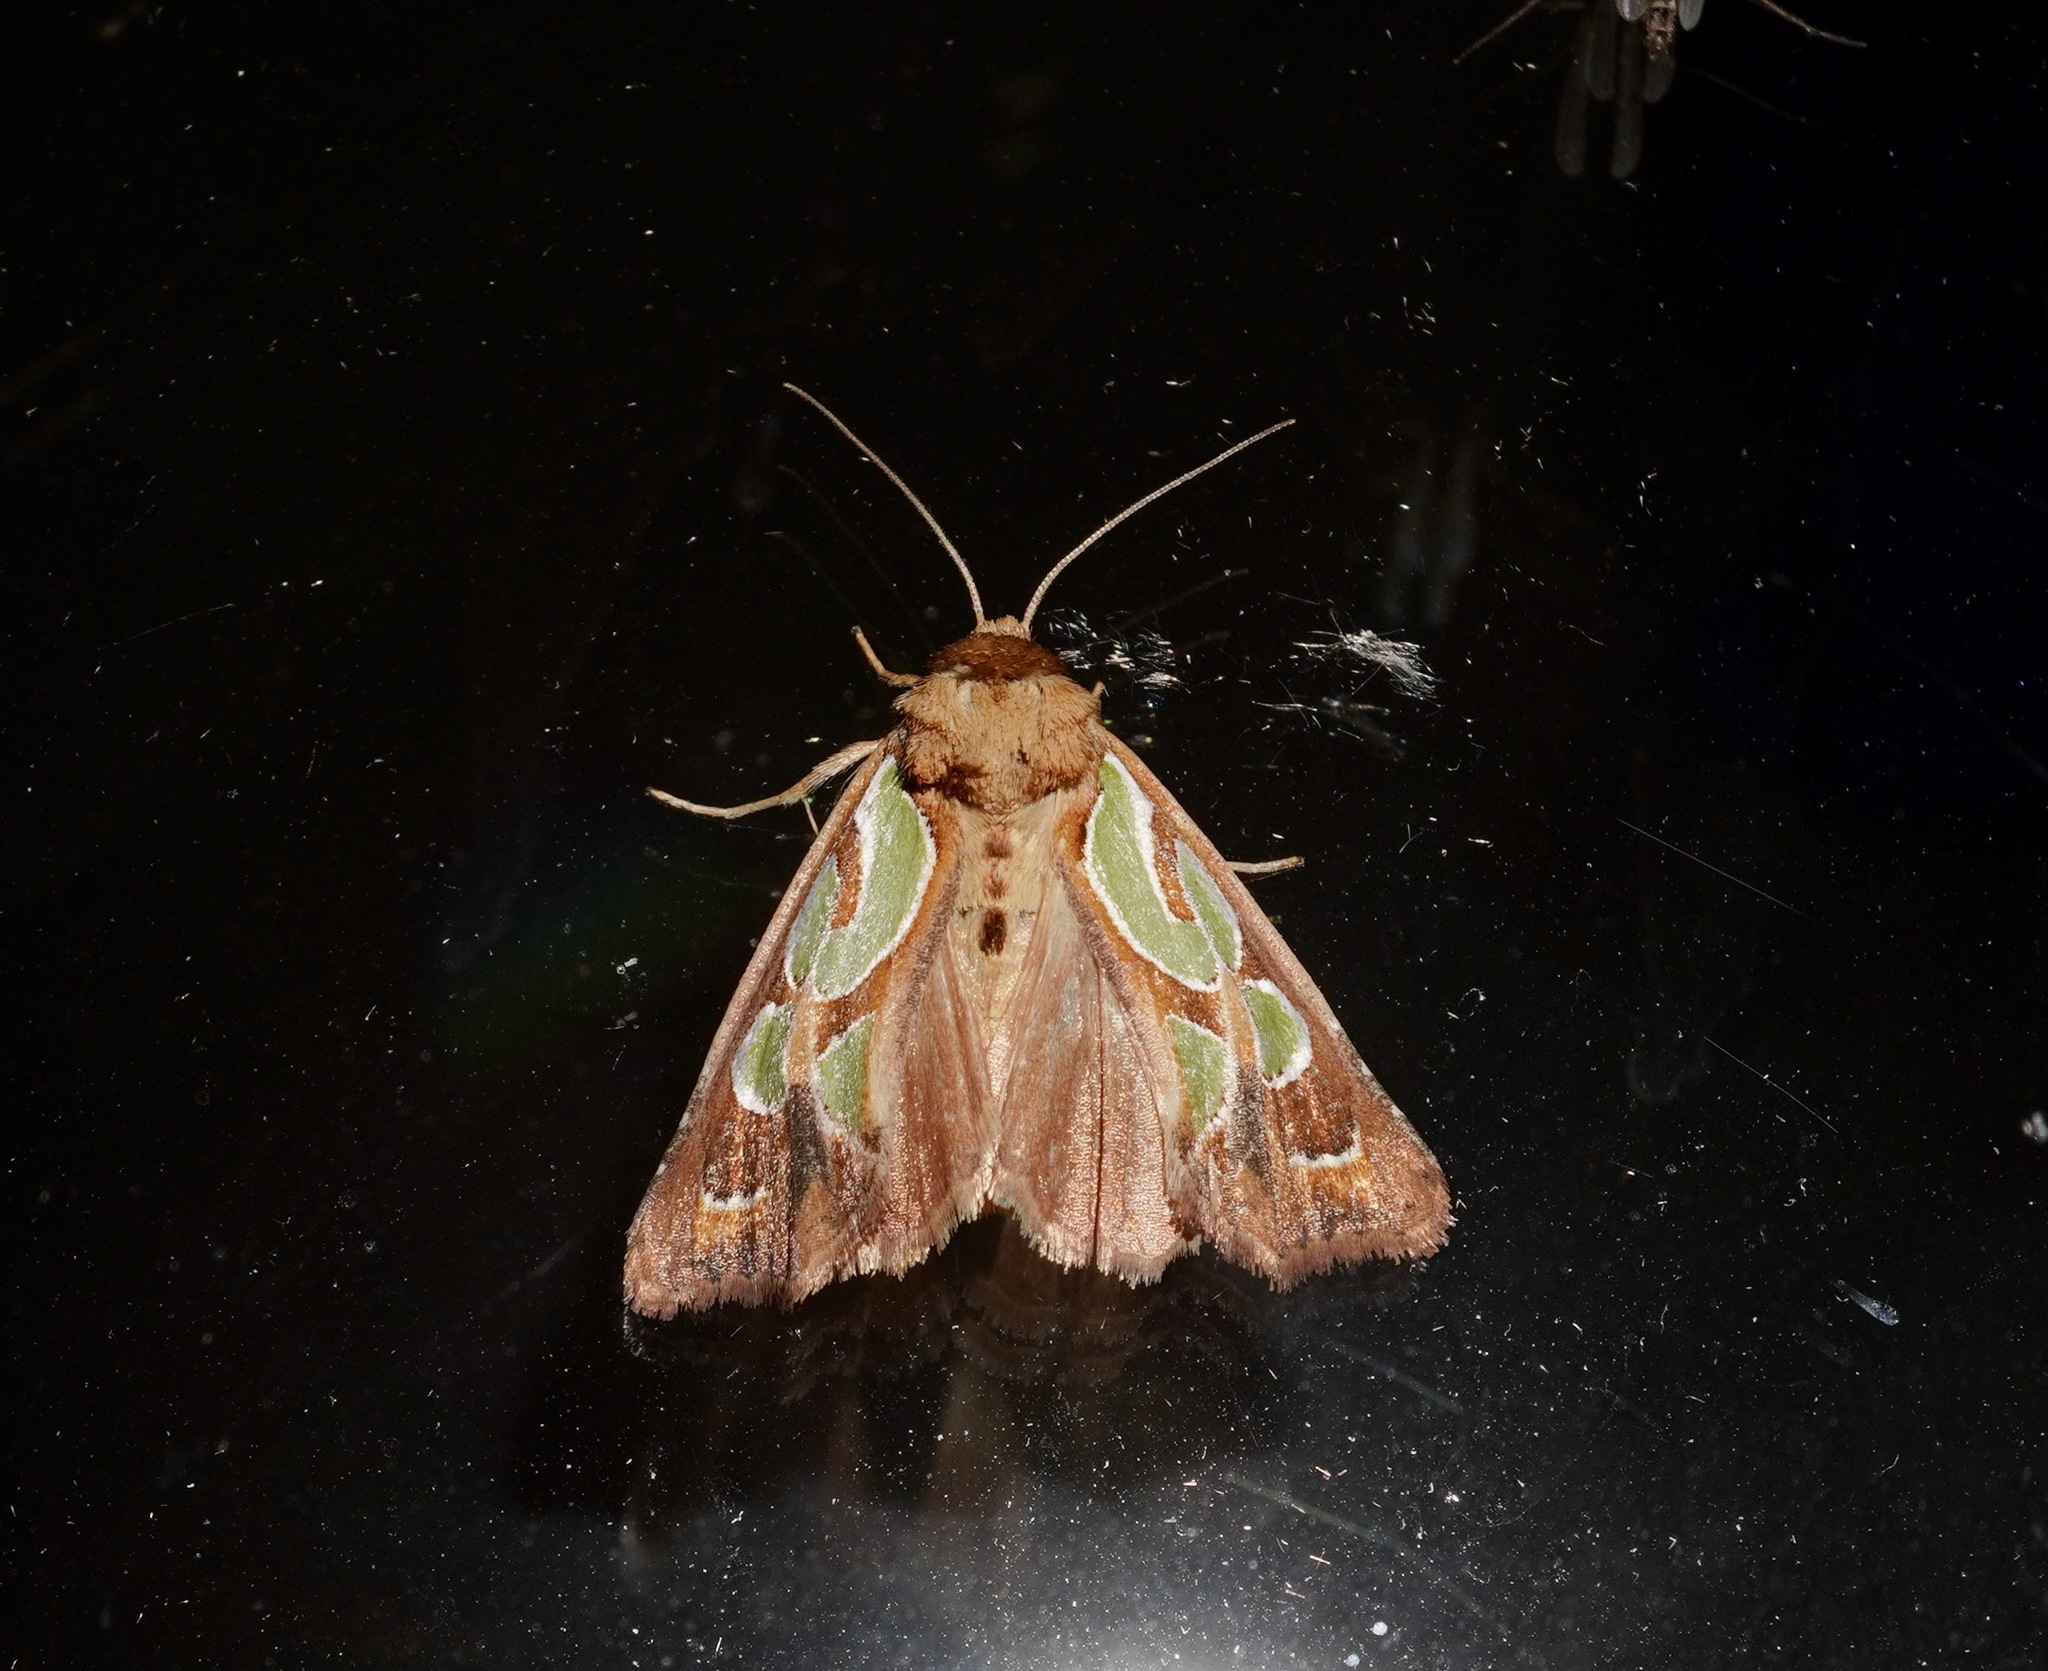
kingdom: Animalia
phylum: Arthropoda
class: Insecta
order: Lepidoptera
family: Noctuidae
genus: Cosmodes
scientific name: Cosmodes elegans
